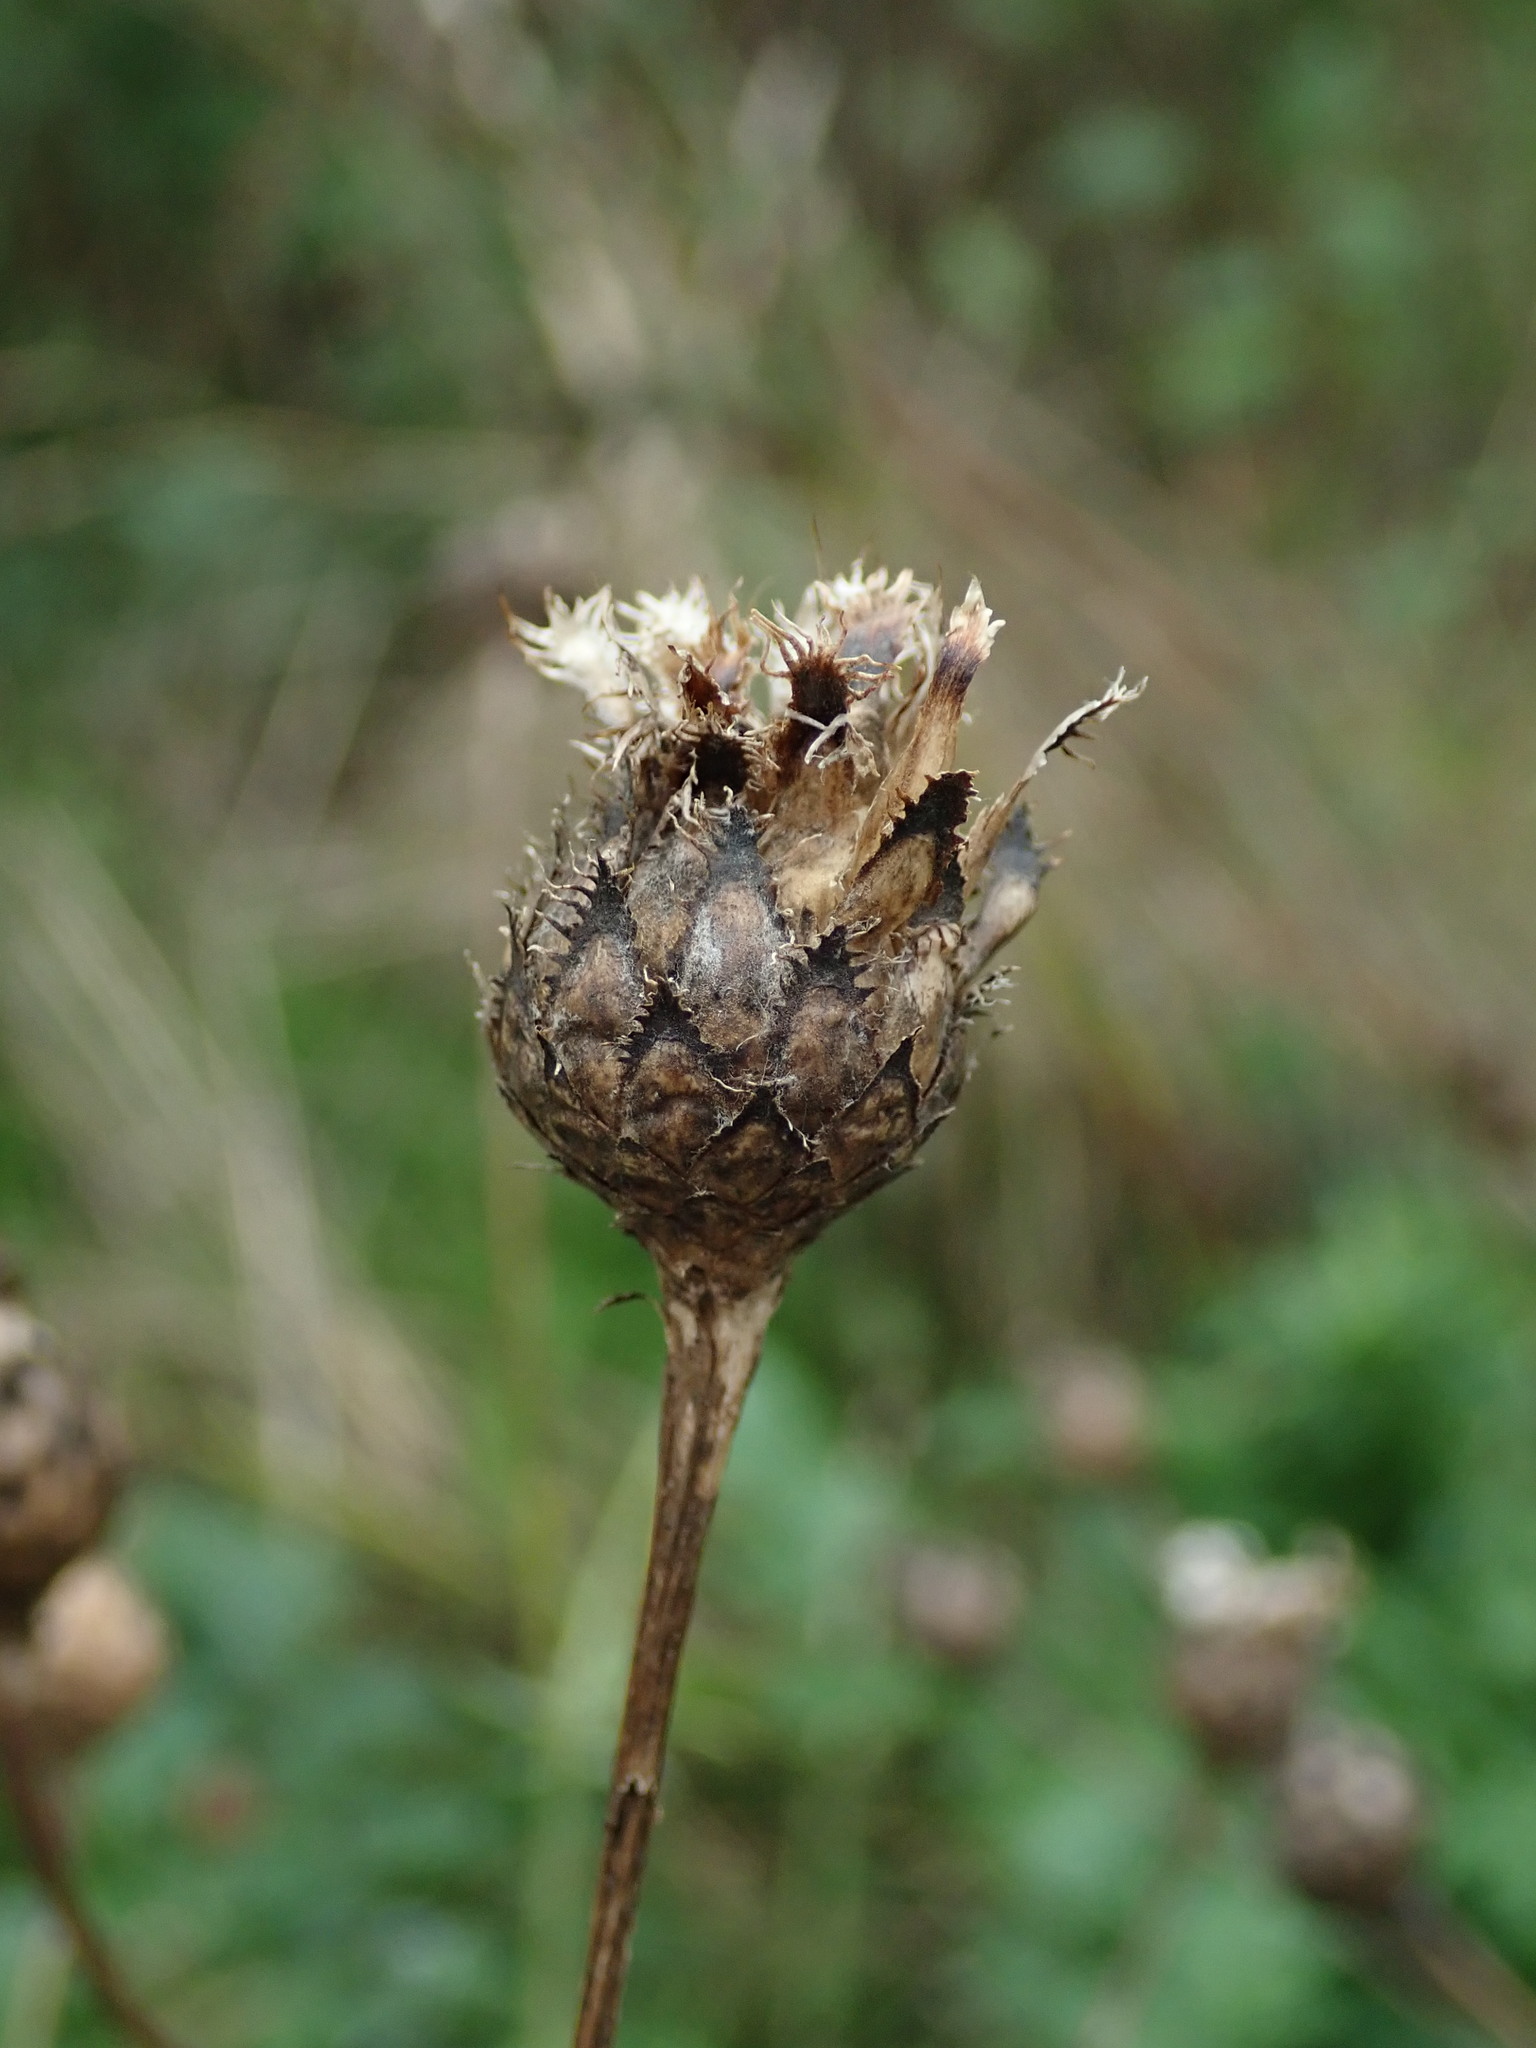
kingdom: Plantae
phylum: Tracheophyta
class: Magnoliopsida
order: Asterales
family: Asteraceae
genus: Centaurea
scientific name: Centaurea scabiosa
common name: Greater knapweed
